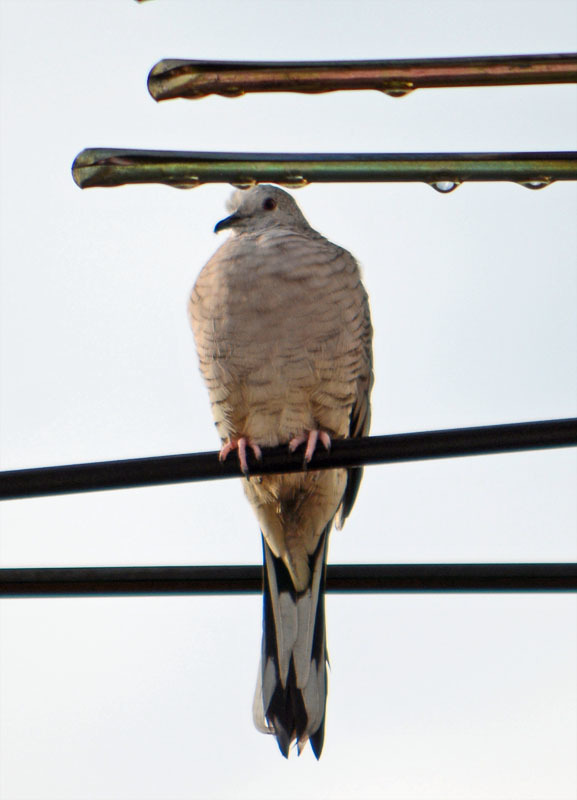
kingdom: Animalia
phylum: Chordata
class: Aves
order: Columbiformes
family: Columbidae
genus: Columbina
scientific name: Columbina inca
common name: Inca dove
